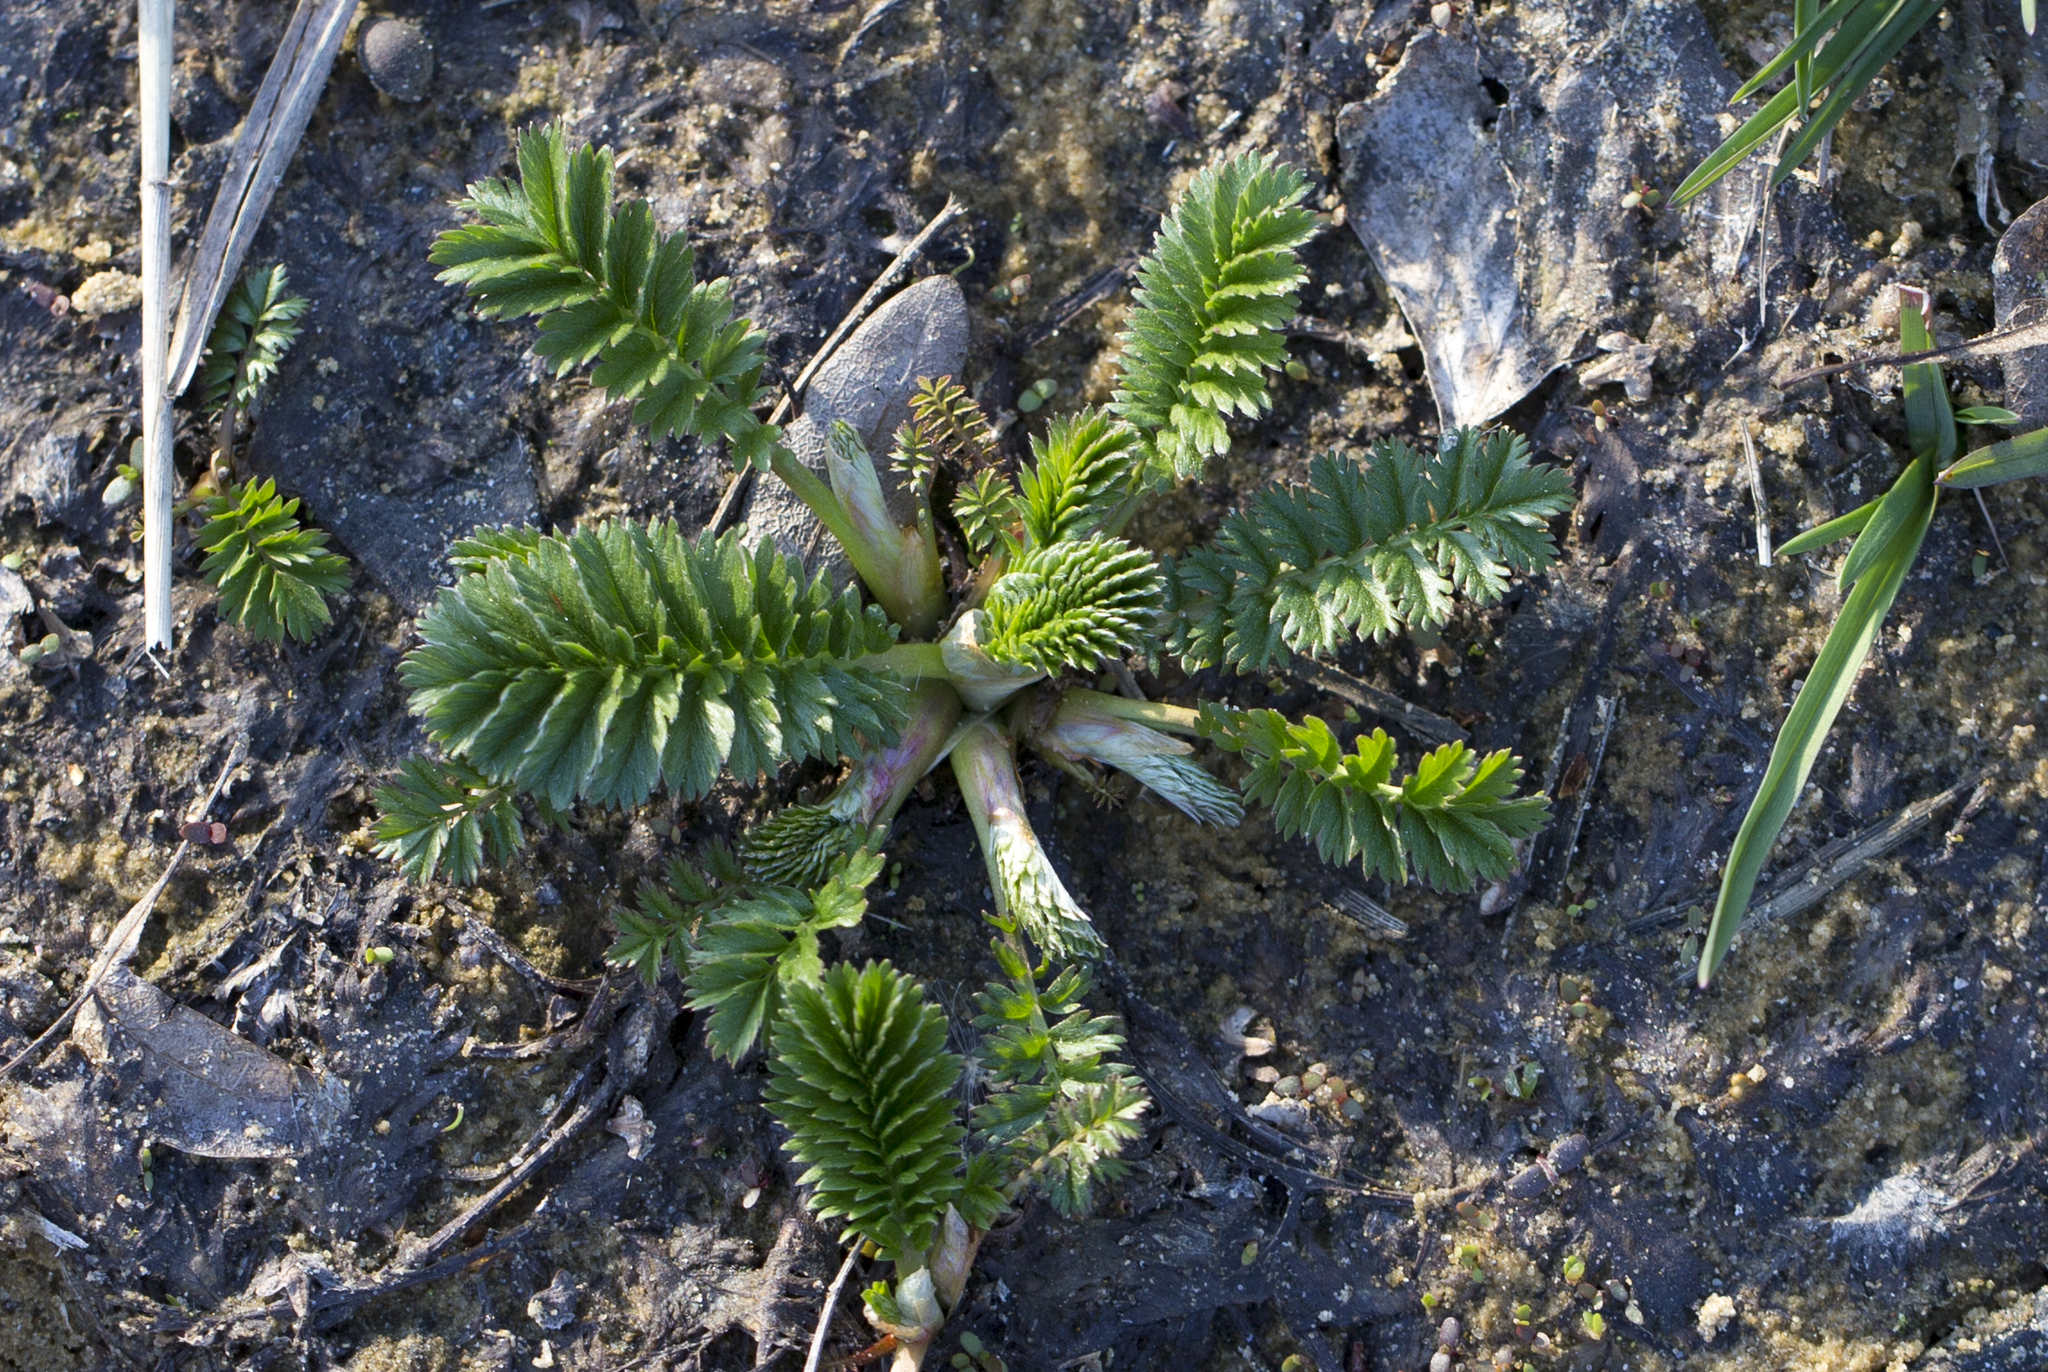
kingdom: Plantae
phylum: Tracheophyta
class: Magnoliopsida
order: Rosales
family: Rosaceae
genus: Argentina
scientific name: Argentina anserina
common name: Common silverweed
